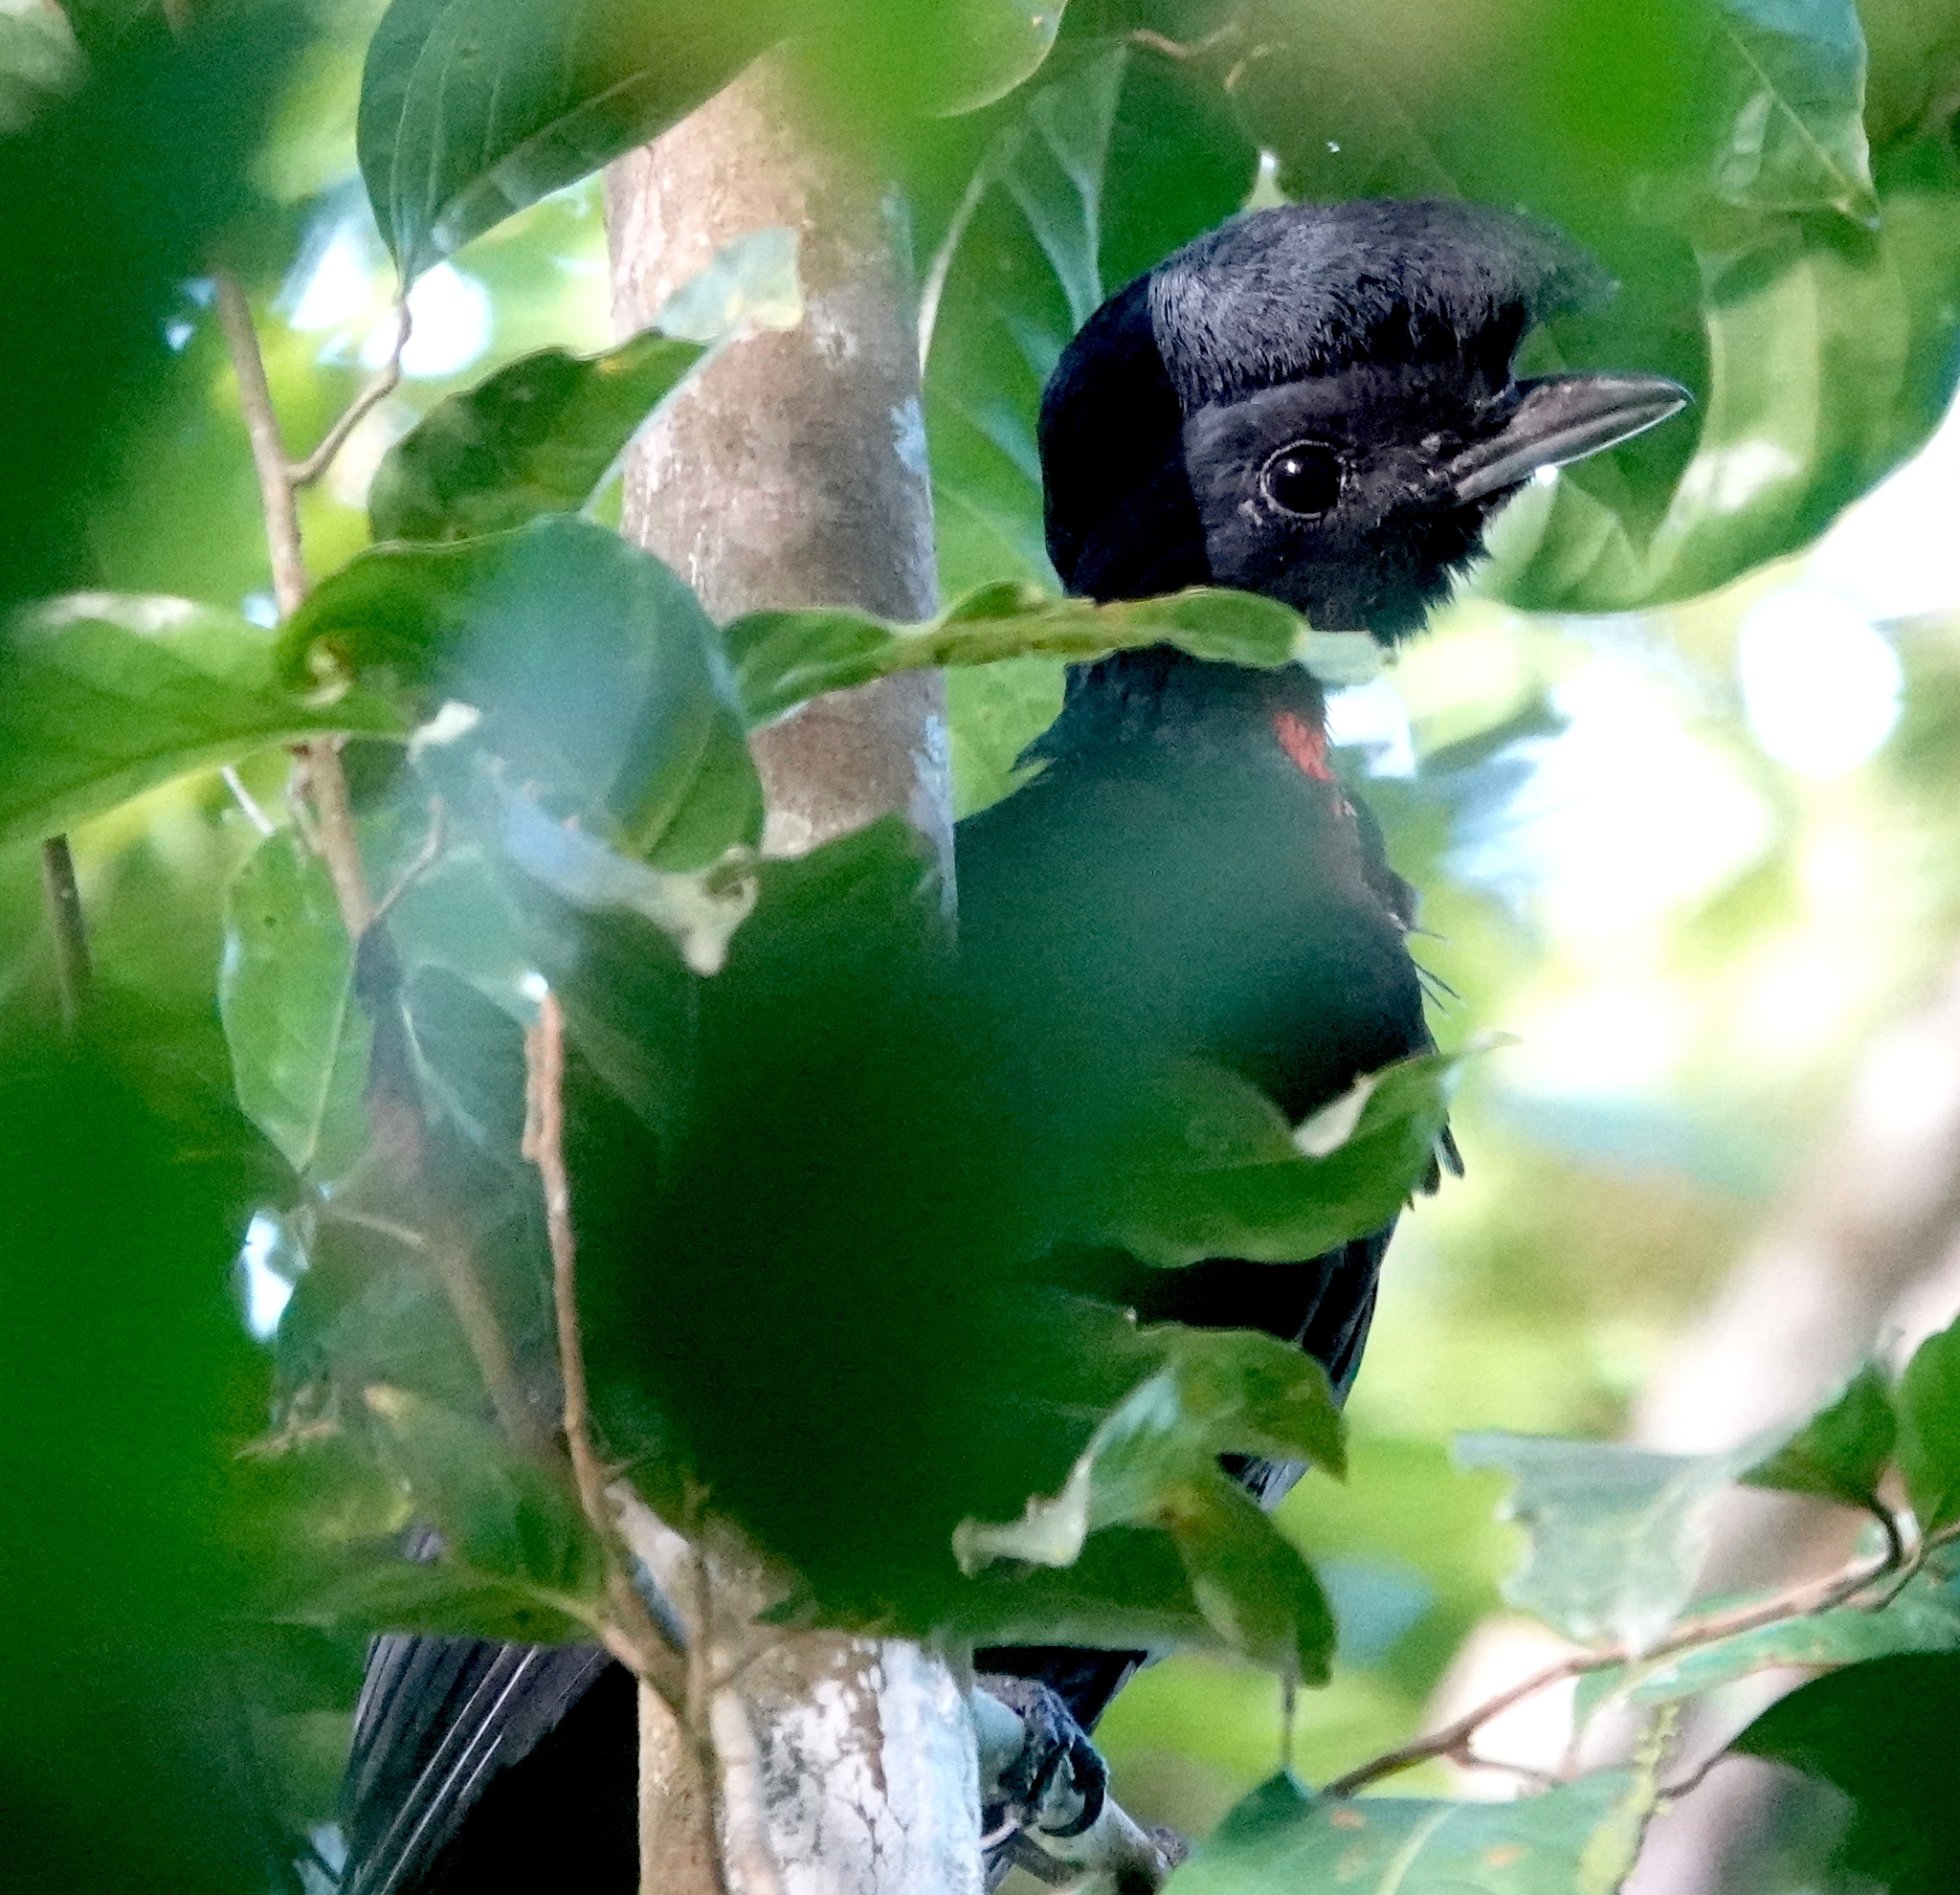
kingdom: Animalia
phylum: Chordata
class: Aves
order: Passeriformes
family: Cotingidae
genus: Cephalopterus
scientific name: Cephalopterus glabricollis
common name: Bare-necked umbrellabird
